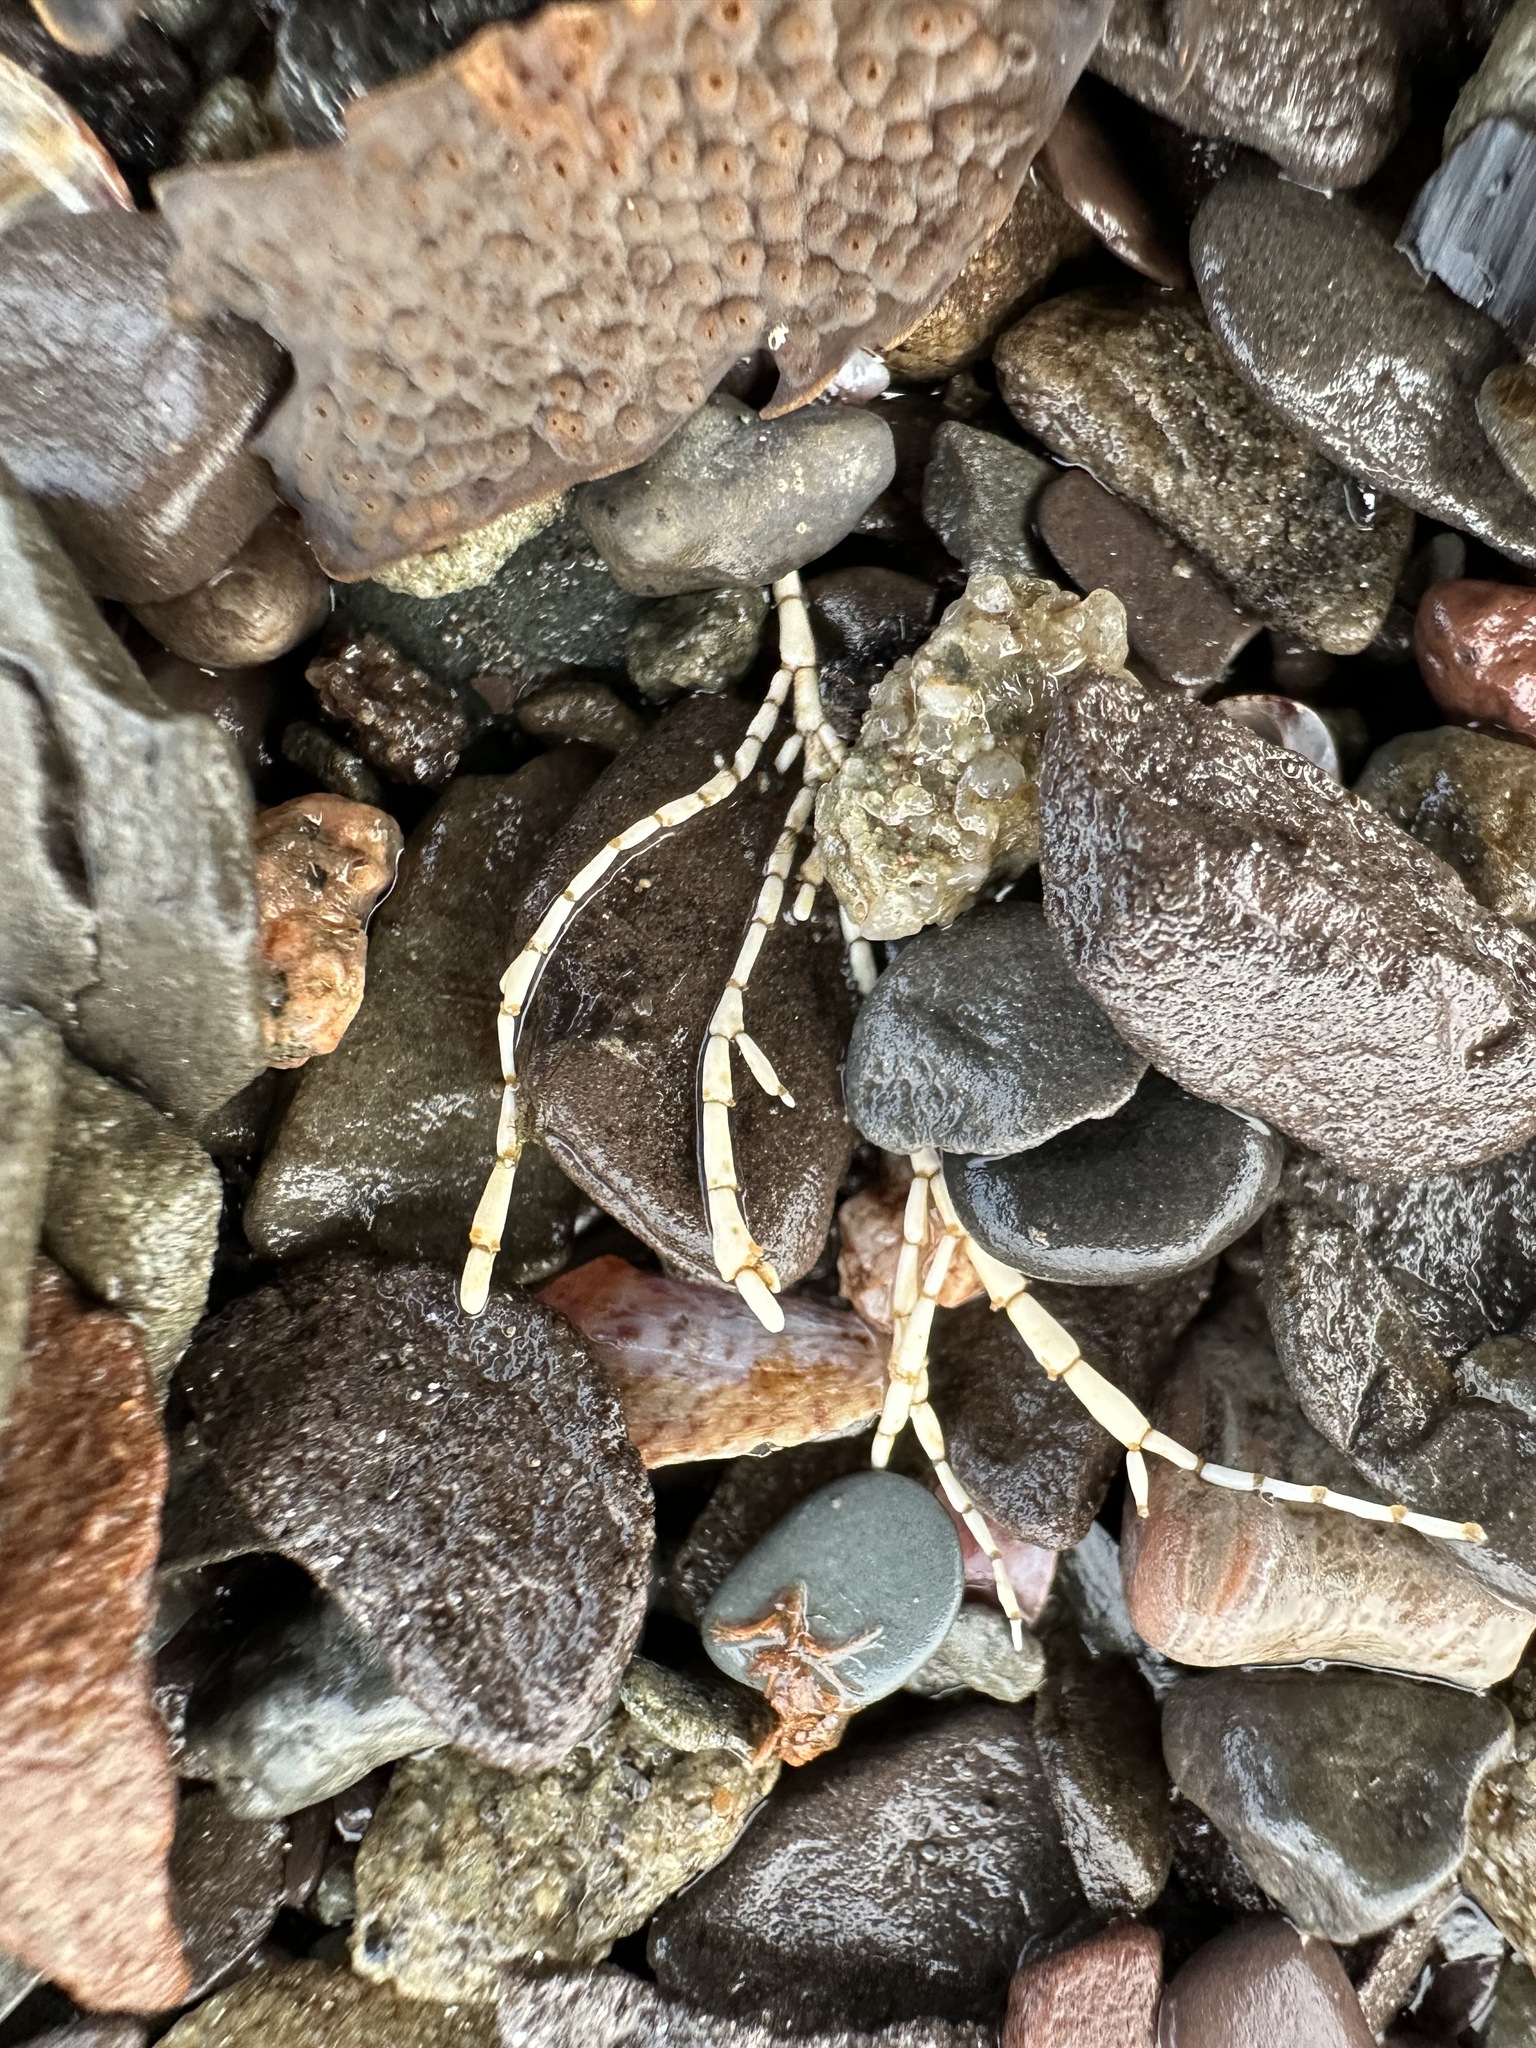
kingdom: Plantae
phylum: Rhodophyta
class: Florideophyceae
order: Corallinales
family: Corallinaceae
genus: Corallina
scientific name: Corallina officinalis
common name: Coral weed
